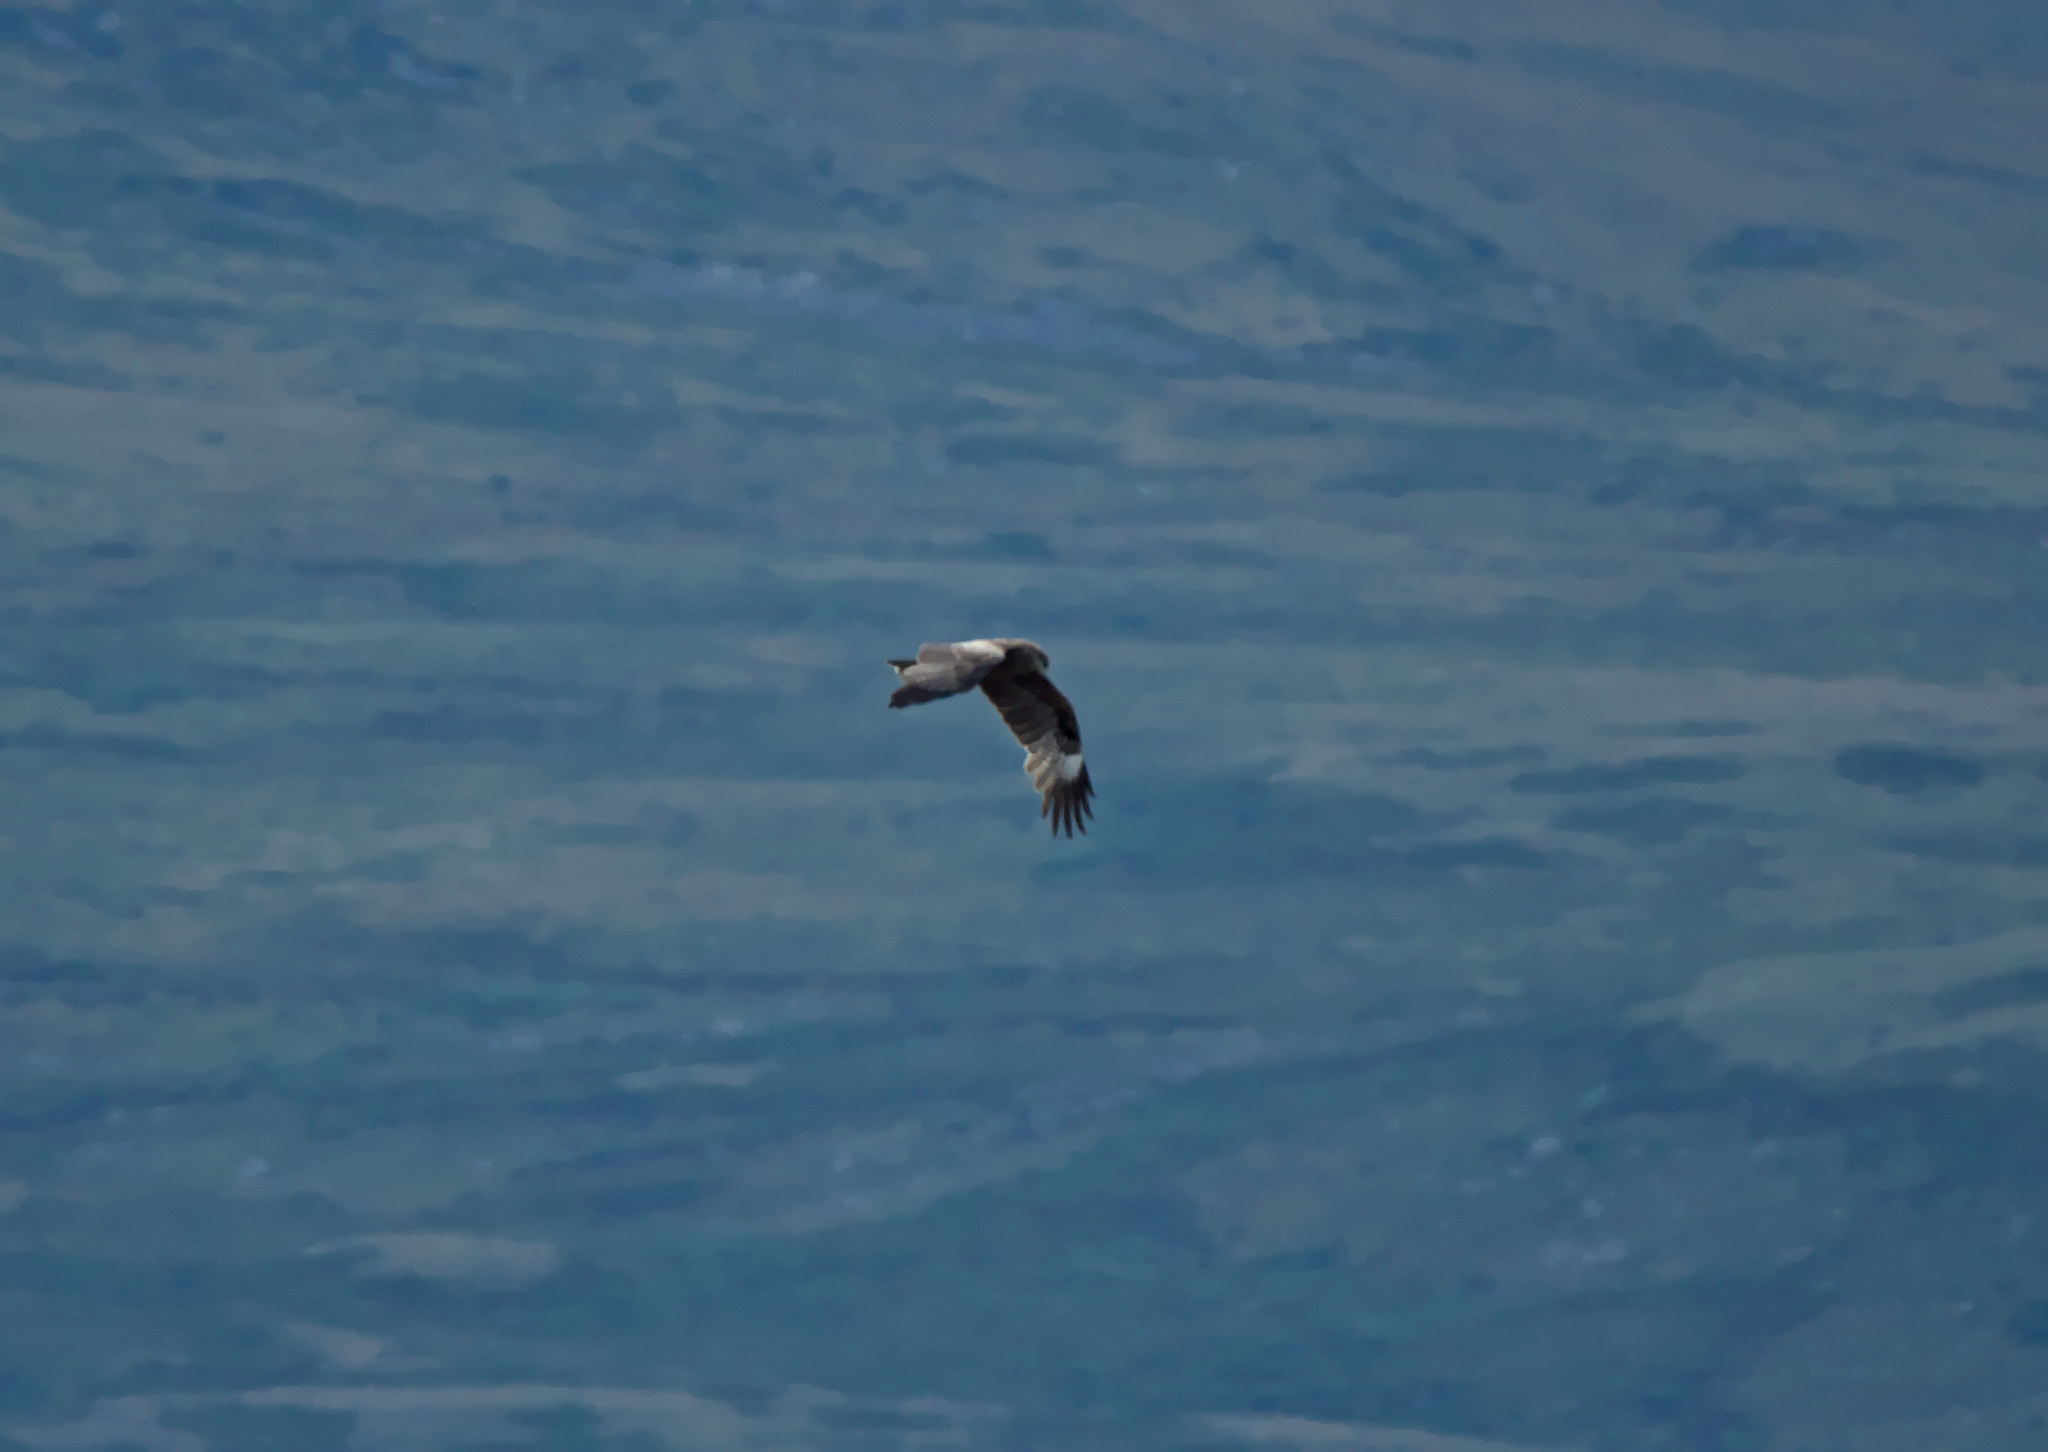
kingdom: Animalia
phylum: Chordata
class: Aves
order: Accipitriformes
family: Accipitridae
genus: Milvus
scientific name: Milvus migrans
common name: Black kite
